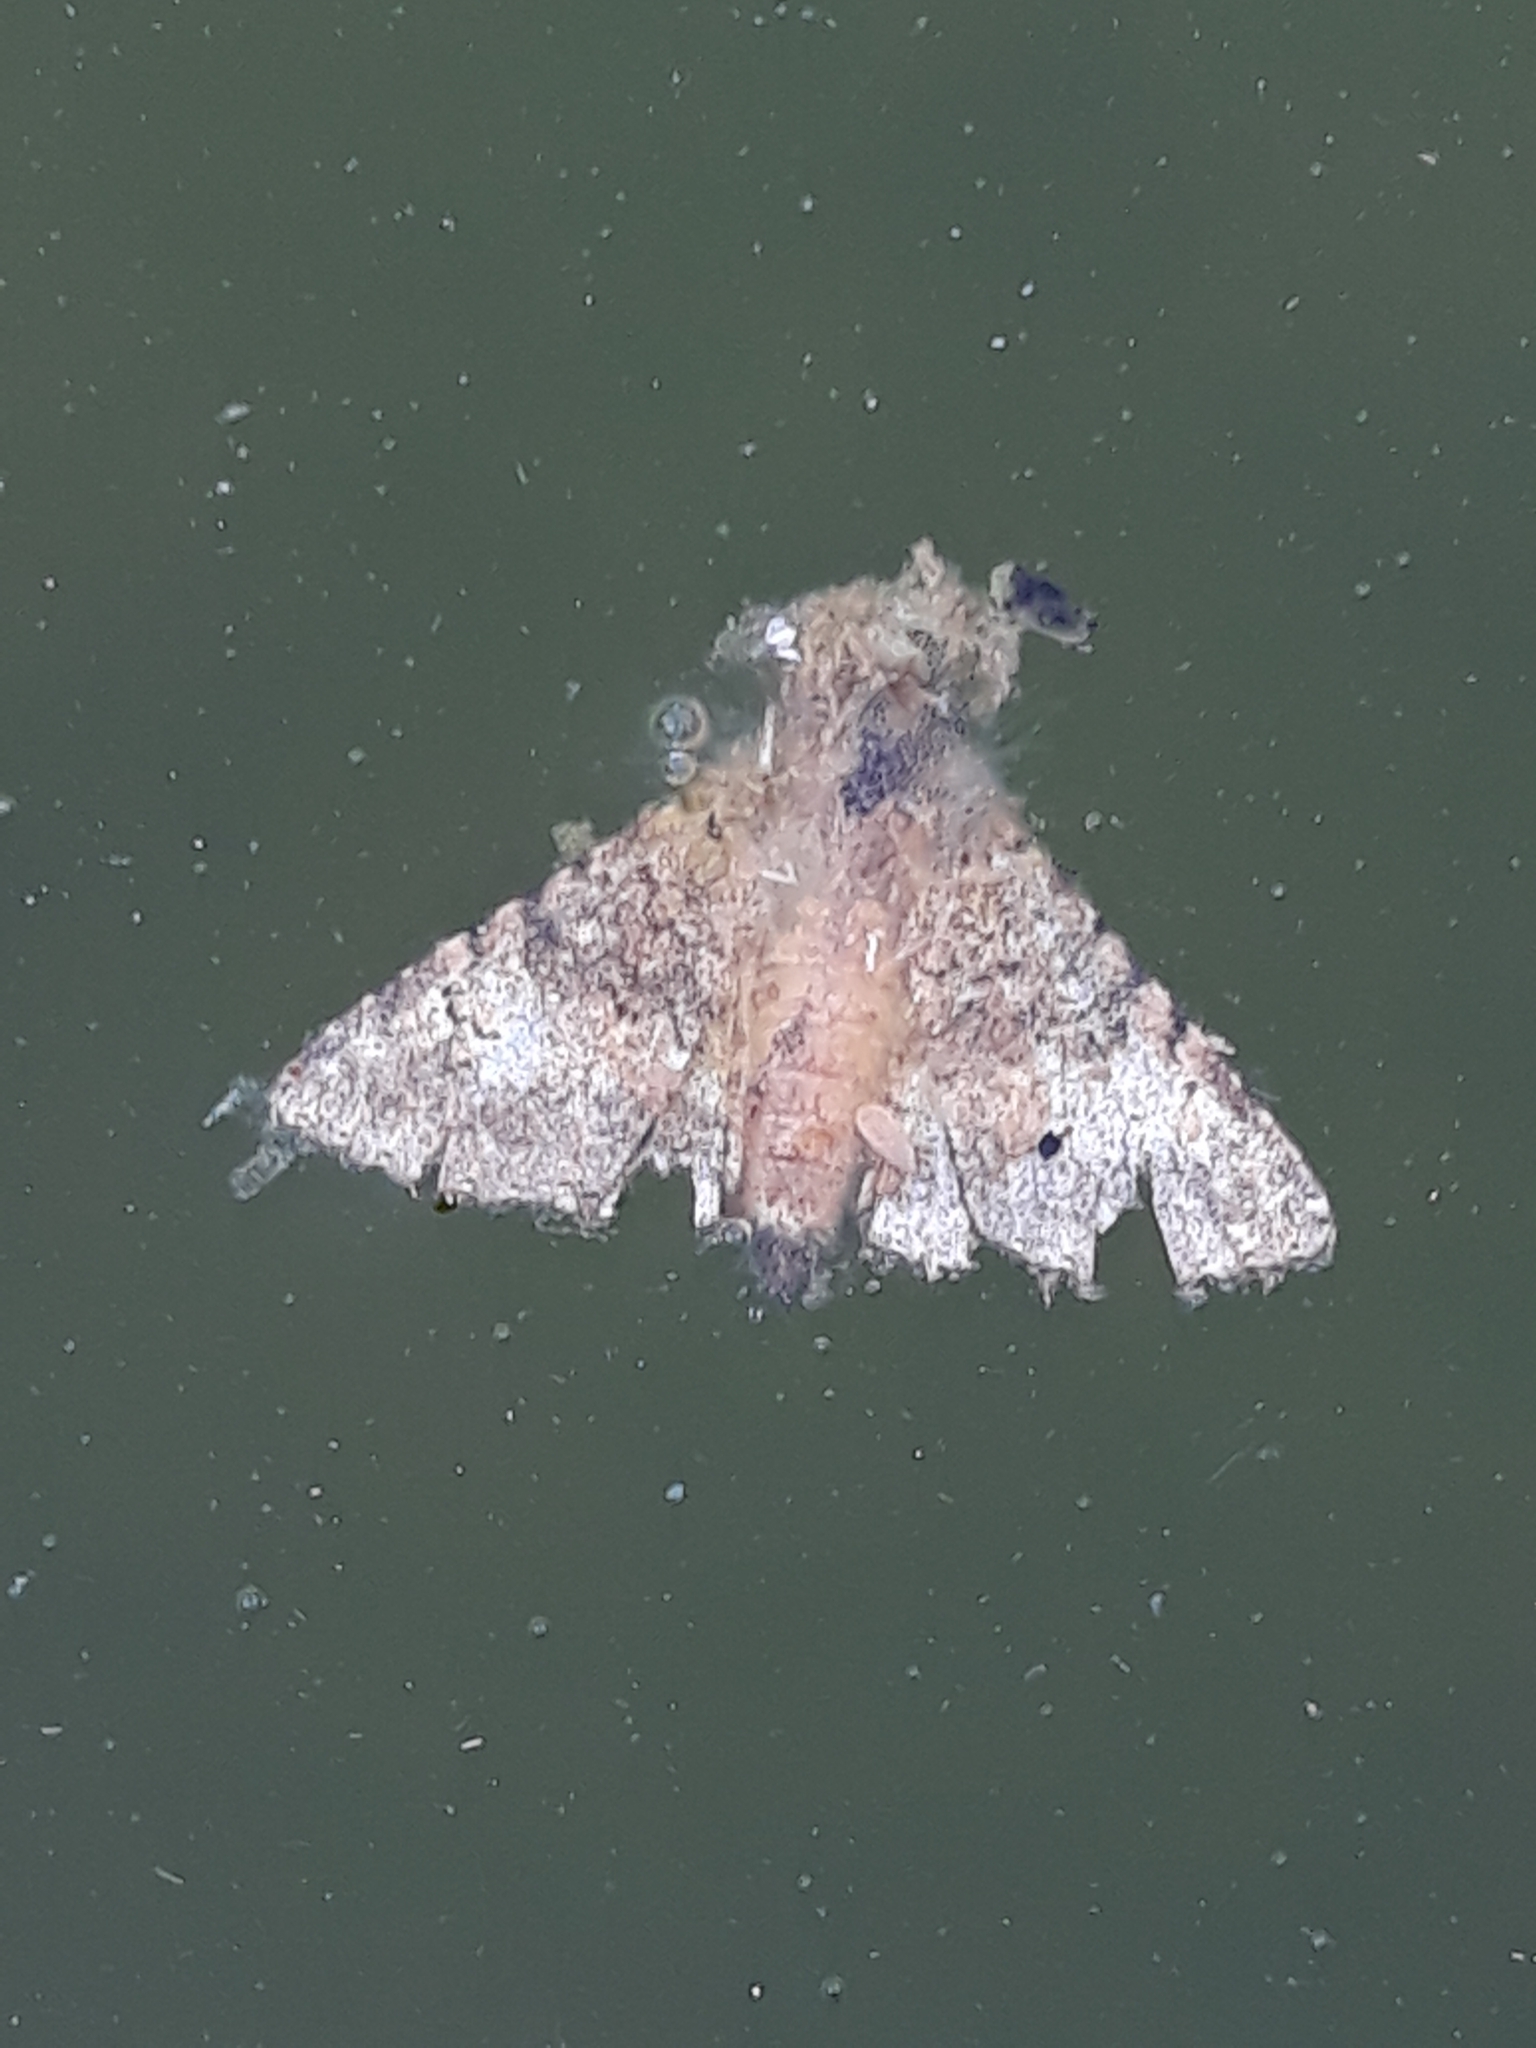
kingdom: Animalia
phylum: Arthropoda
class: Insecta
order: Lepidoptera
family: Erebidae
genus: Pandesma
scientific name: Pandesma robusta
